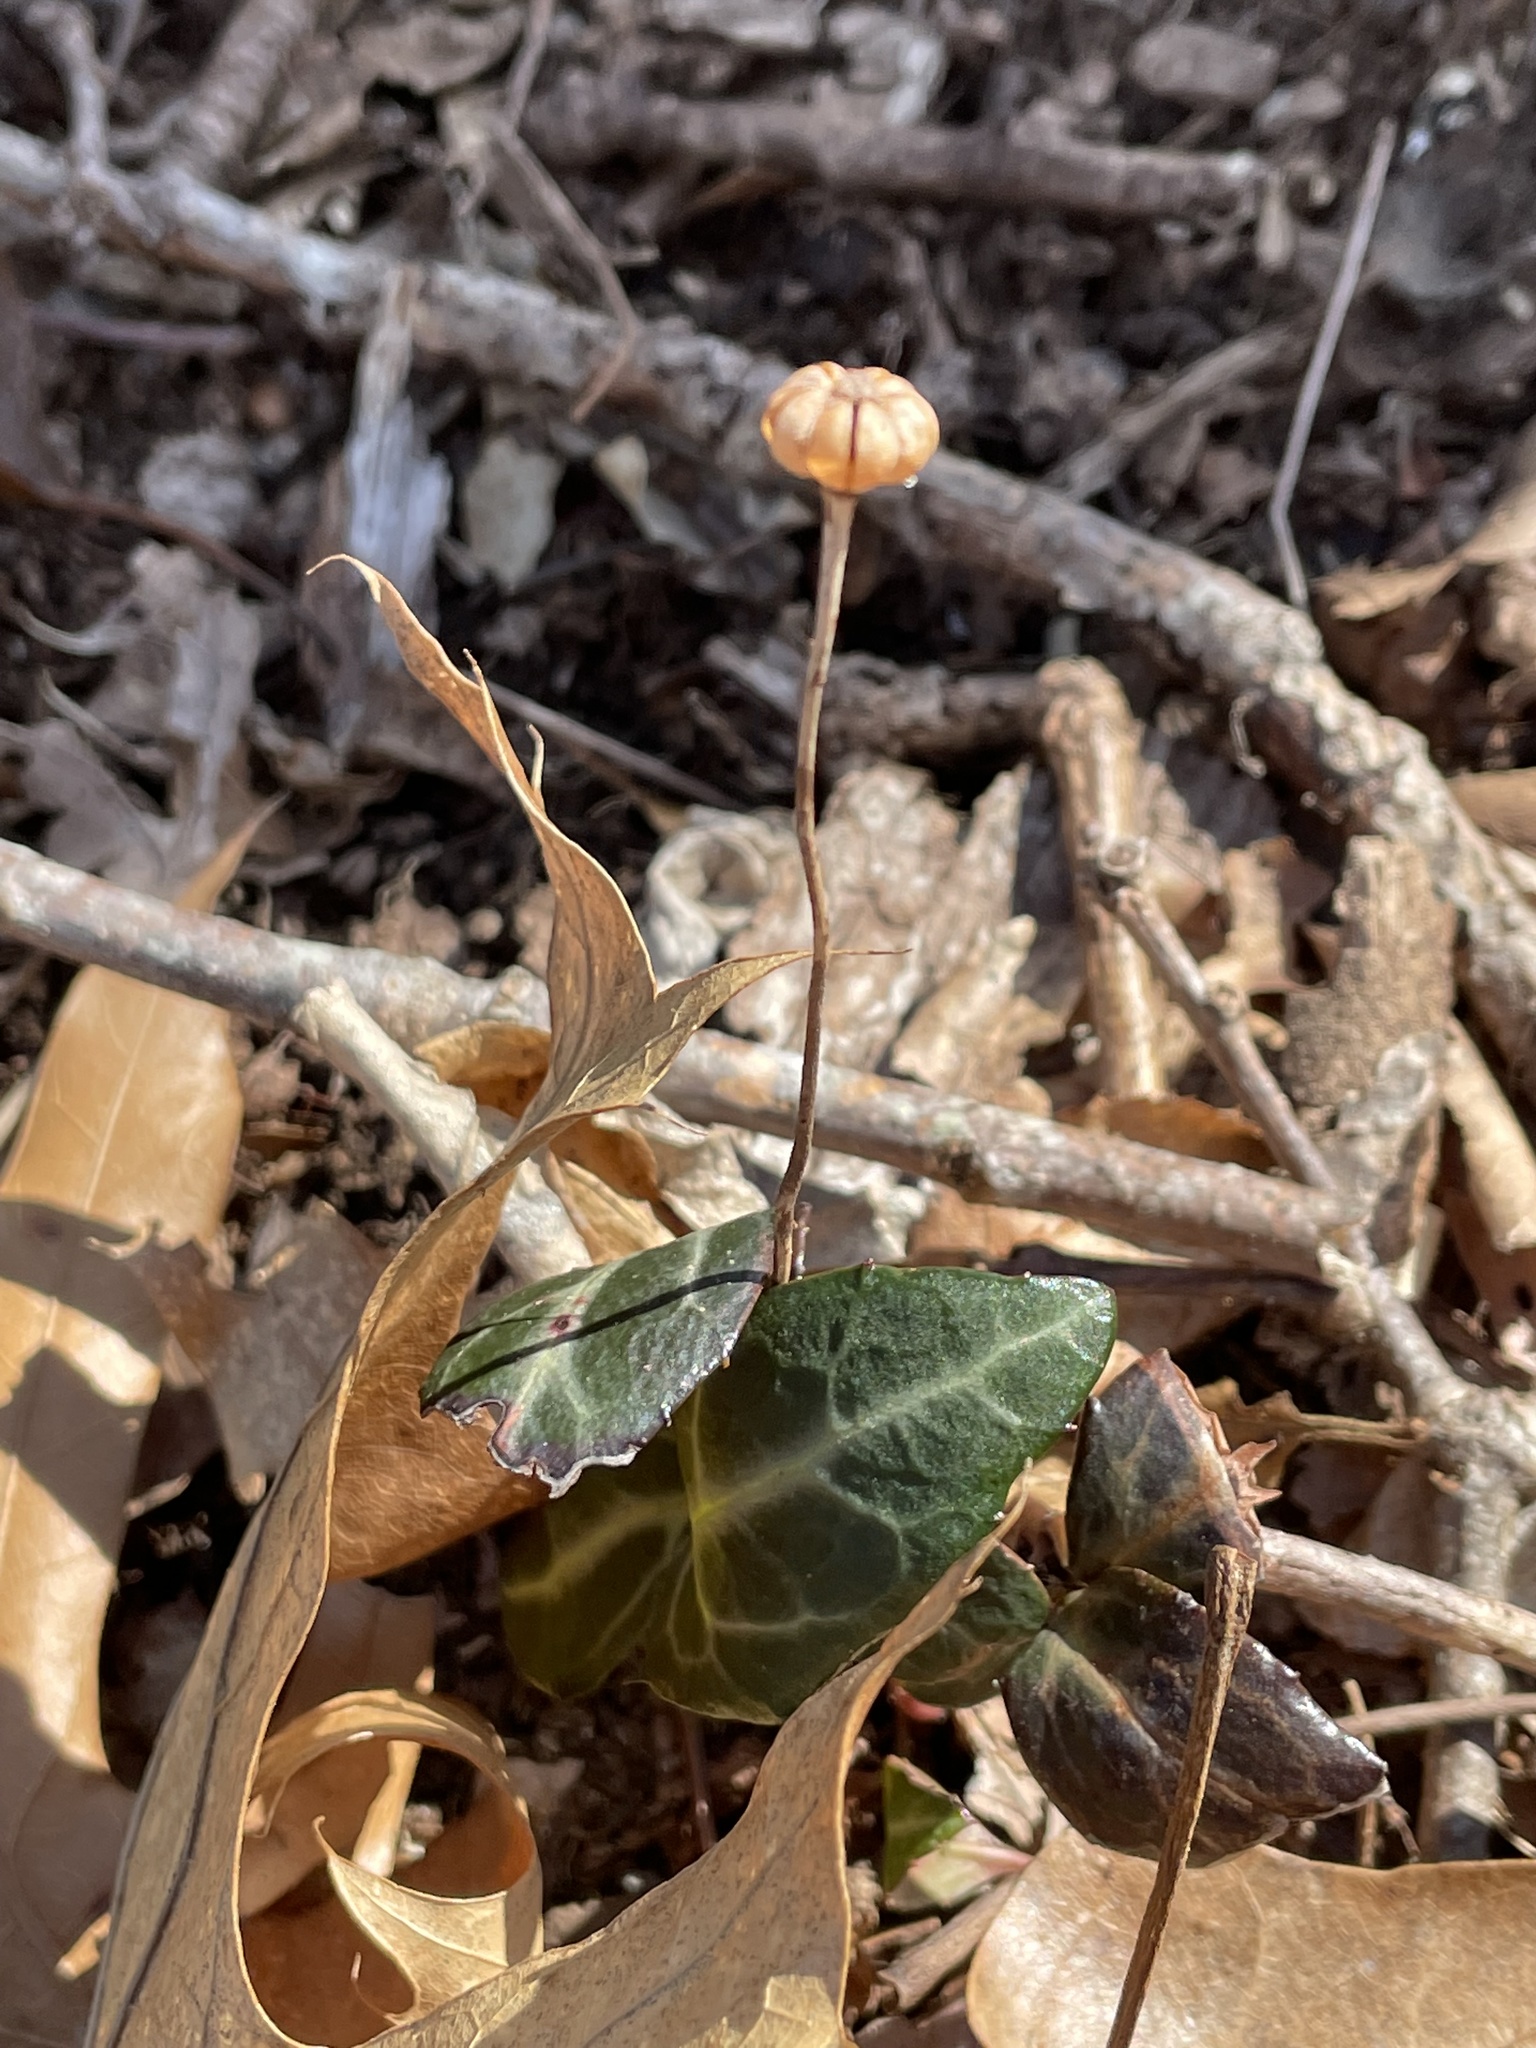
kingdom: Plantae
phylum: Tracheophyta
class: Magnoliopsida
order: Ericales
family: Ericaceae
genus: Chimaphila
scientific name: Chimaphila maculata
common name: Spotted pipsissewa
